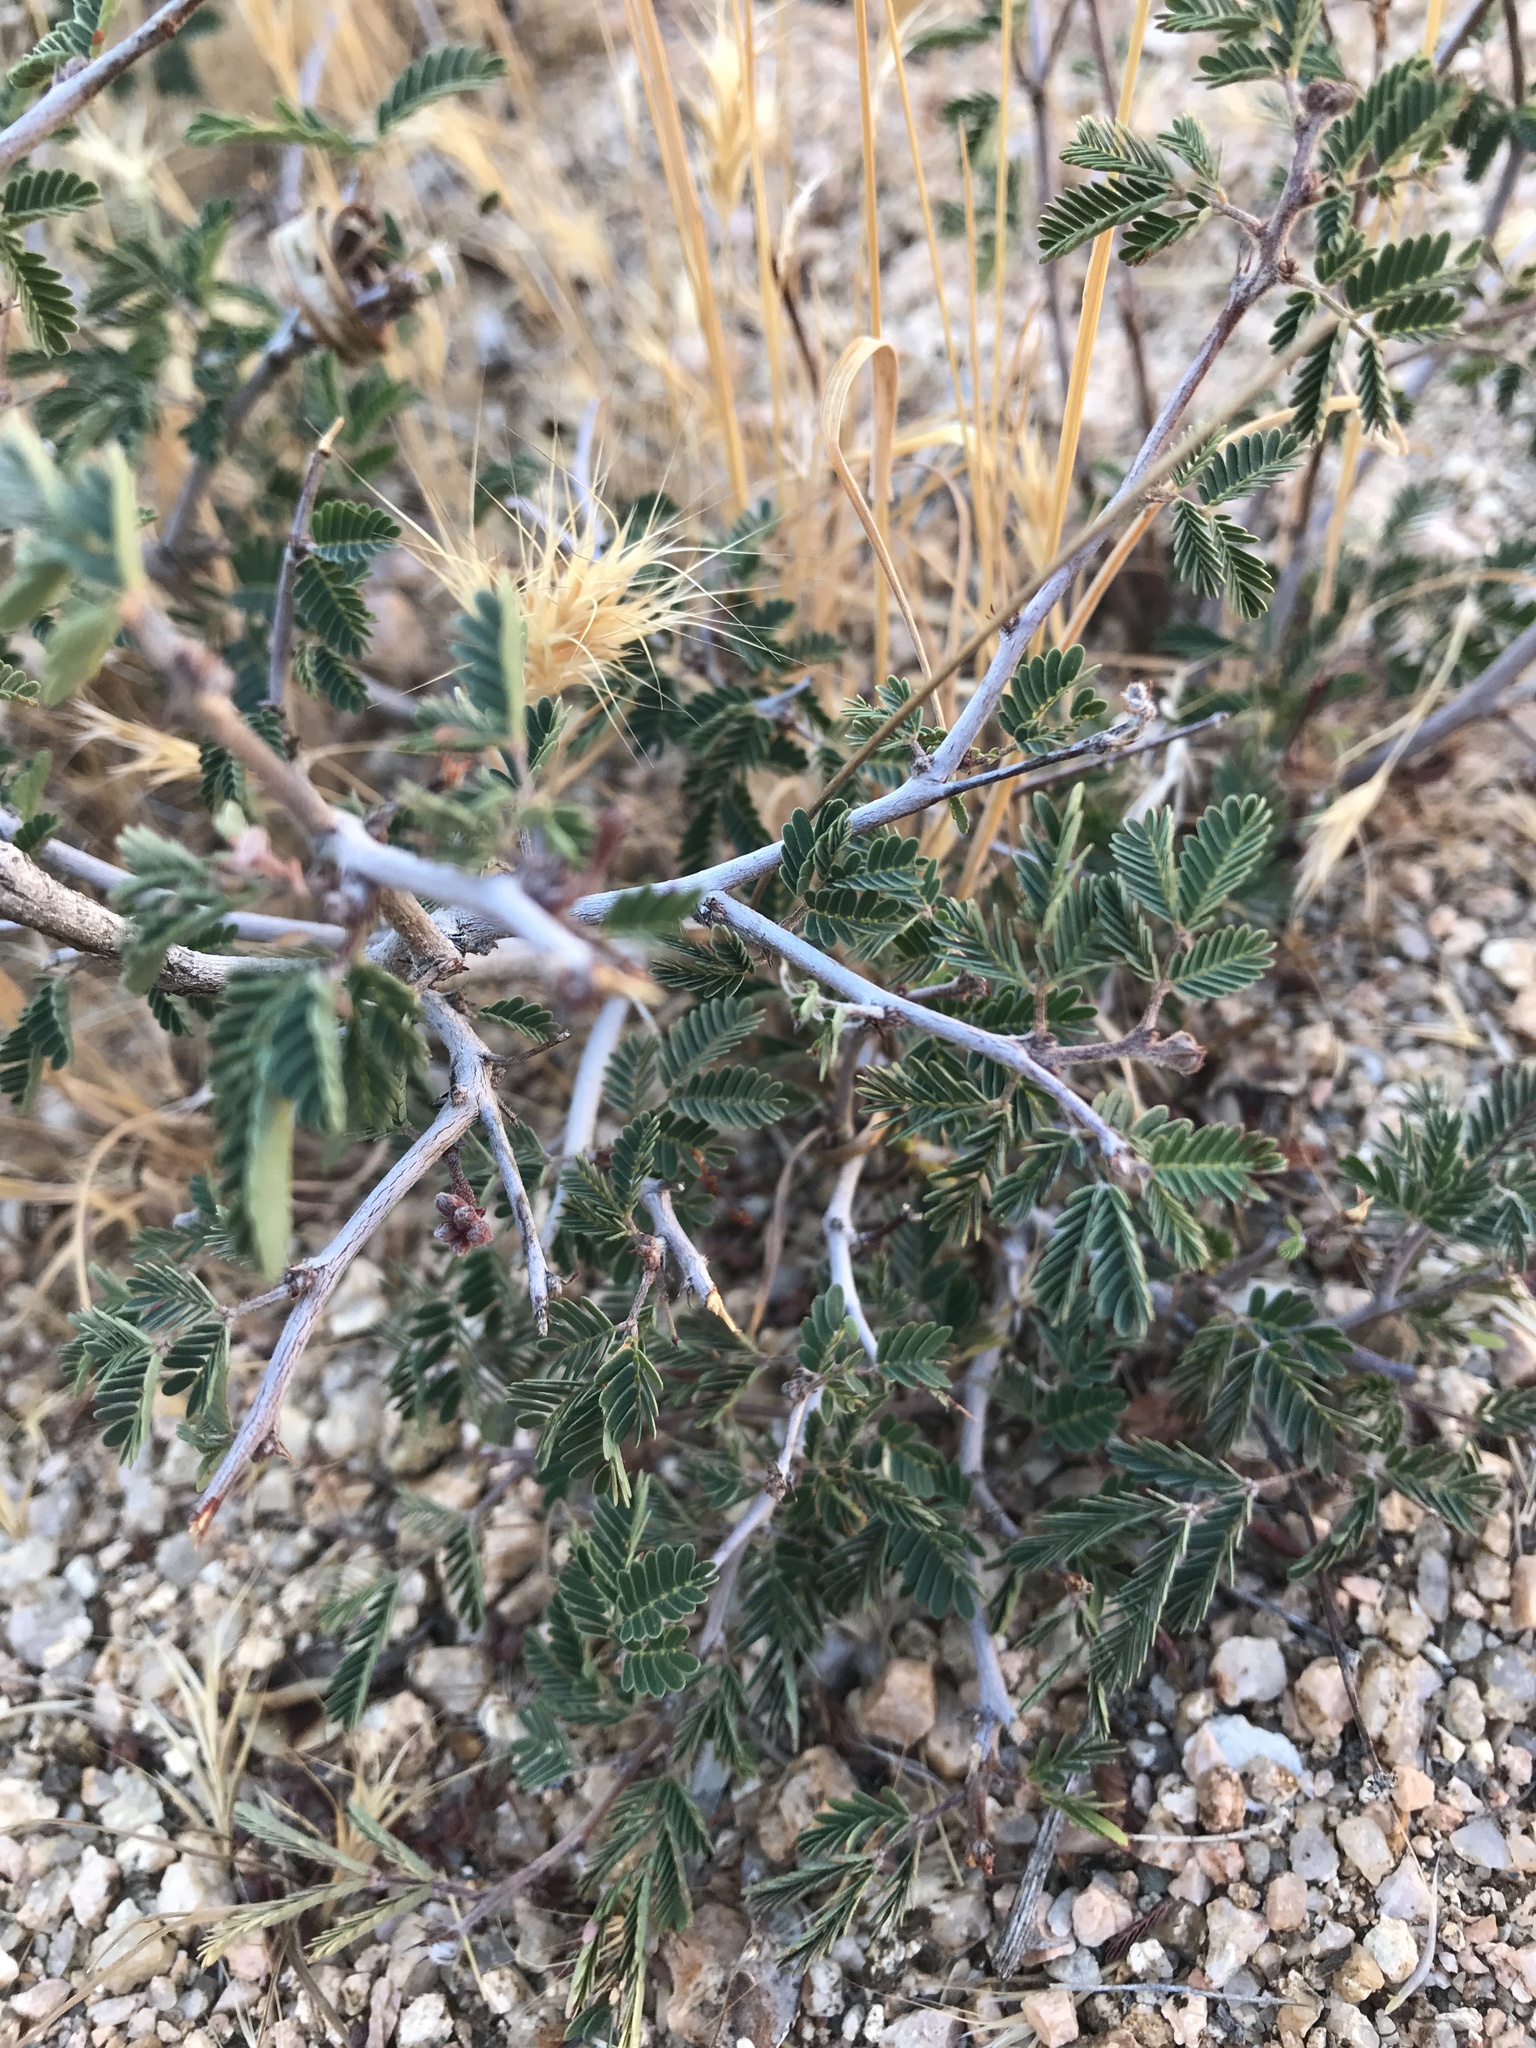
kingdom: Plantae
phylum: Tracheophyta
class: Magnoliopsida
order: Fabales
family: Fabaceae
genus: Calliandra
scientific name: Calliandra eriophylla
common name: Fairy-duster
